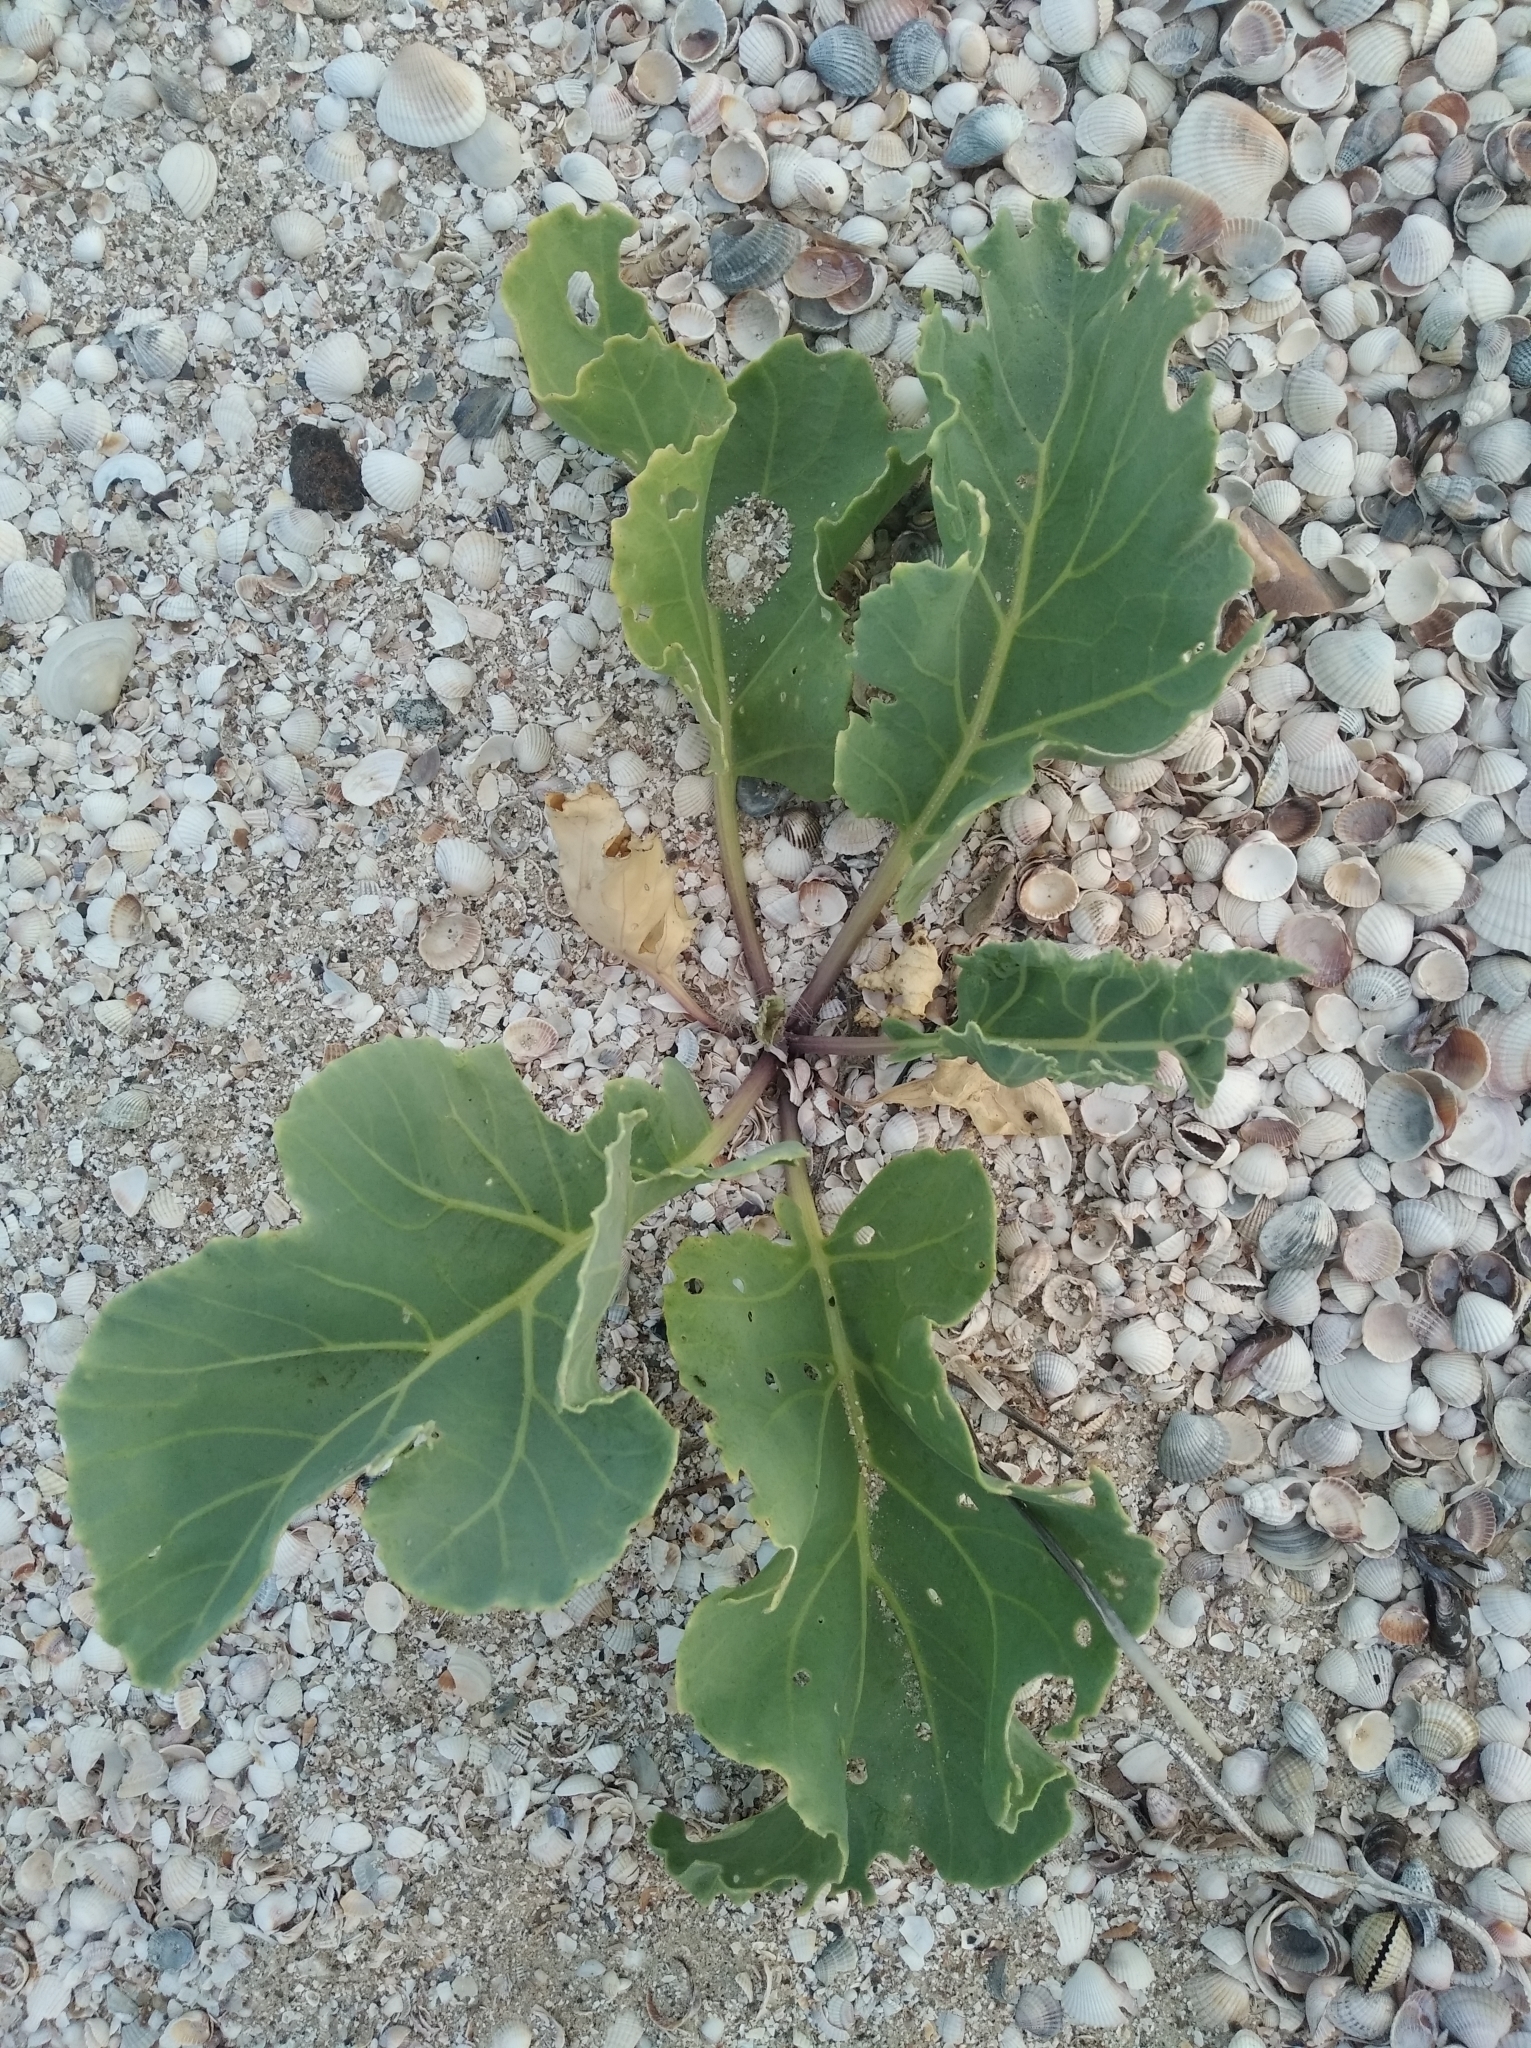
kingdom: Plantae
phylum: Tracheophyta
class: Magnoliopsida
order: Brassicales
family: Brassicaceae
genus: Crambe
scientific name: Crambe maritima
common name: Sea-kale
